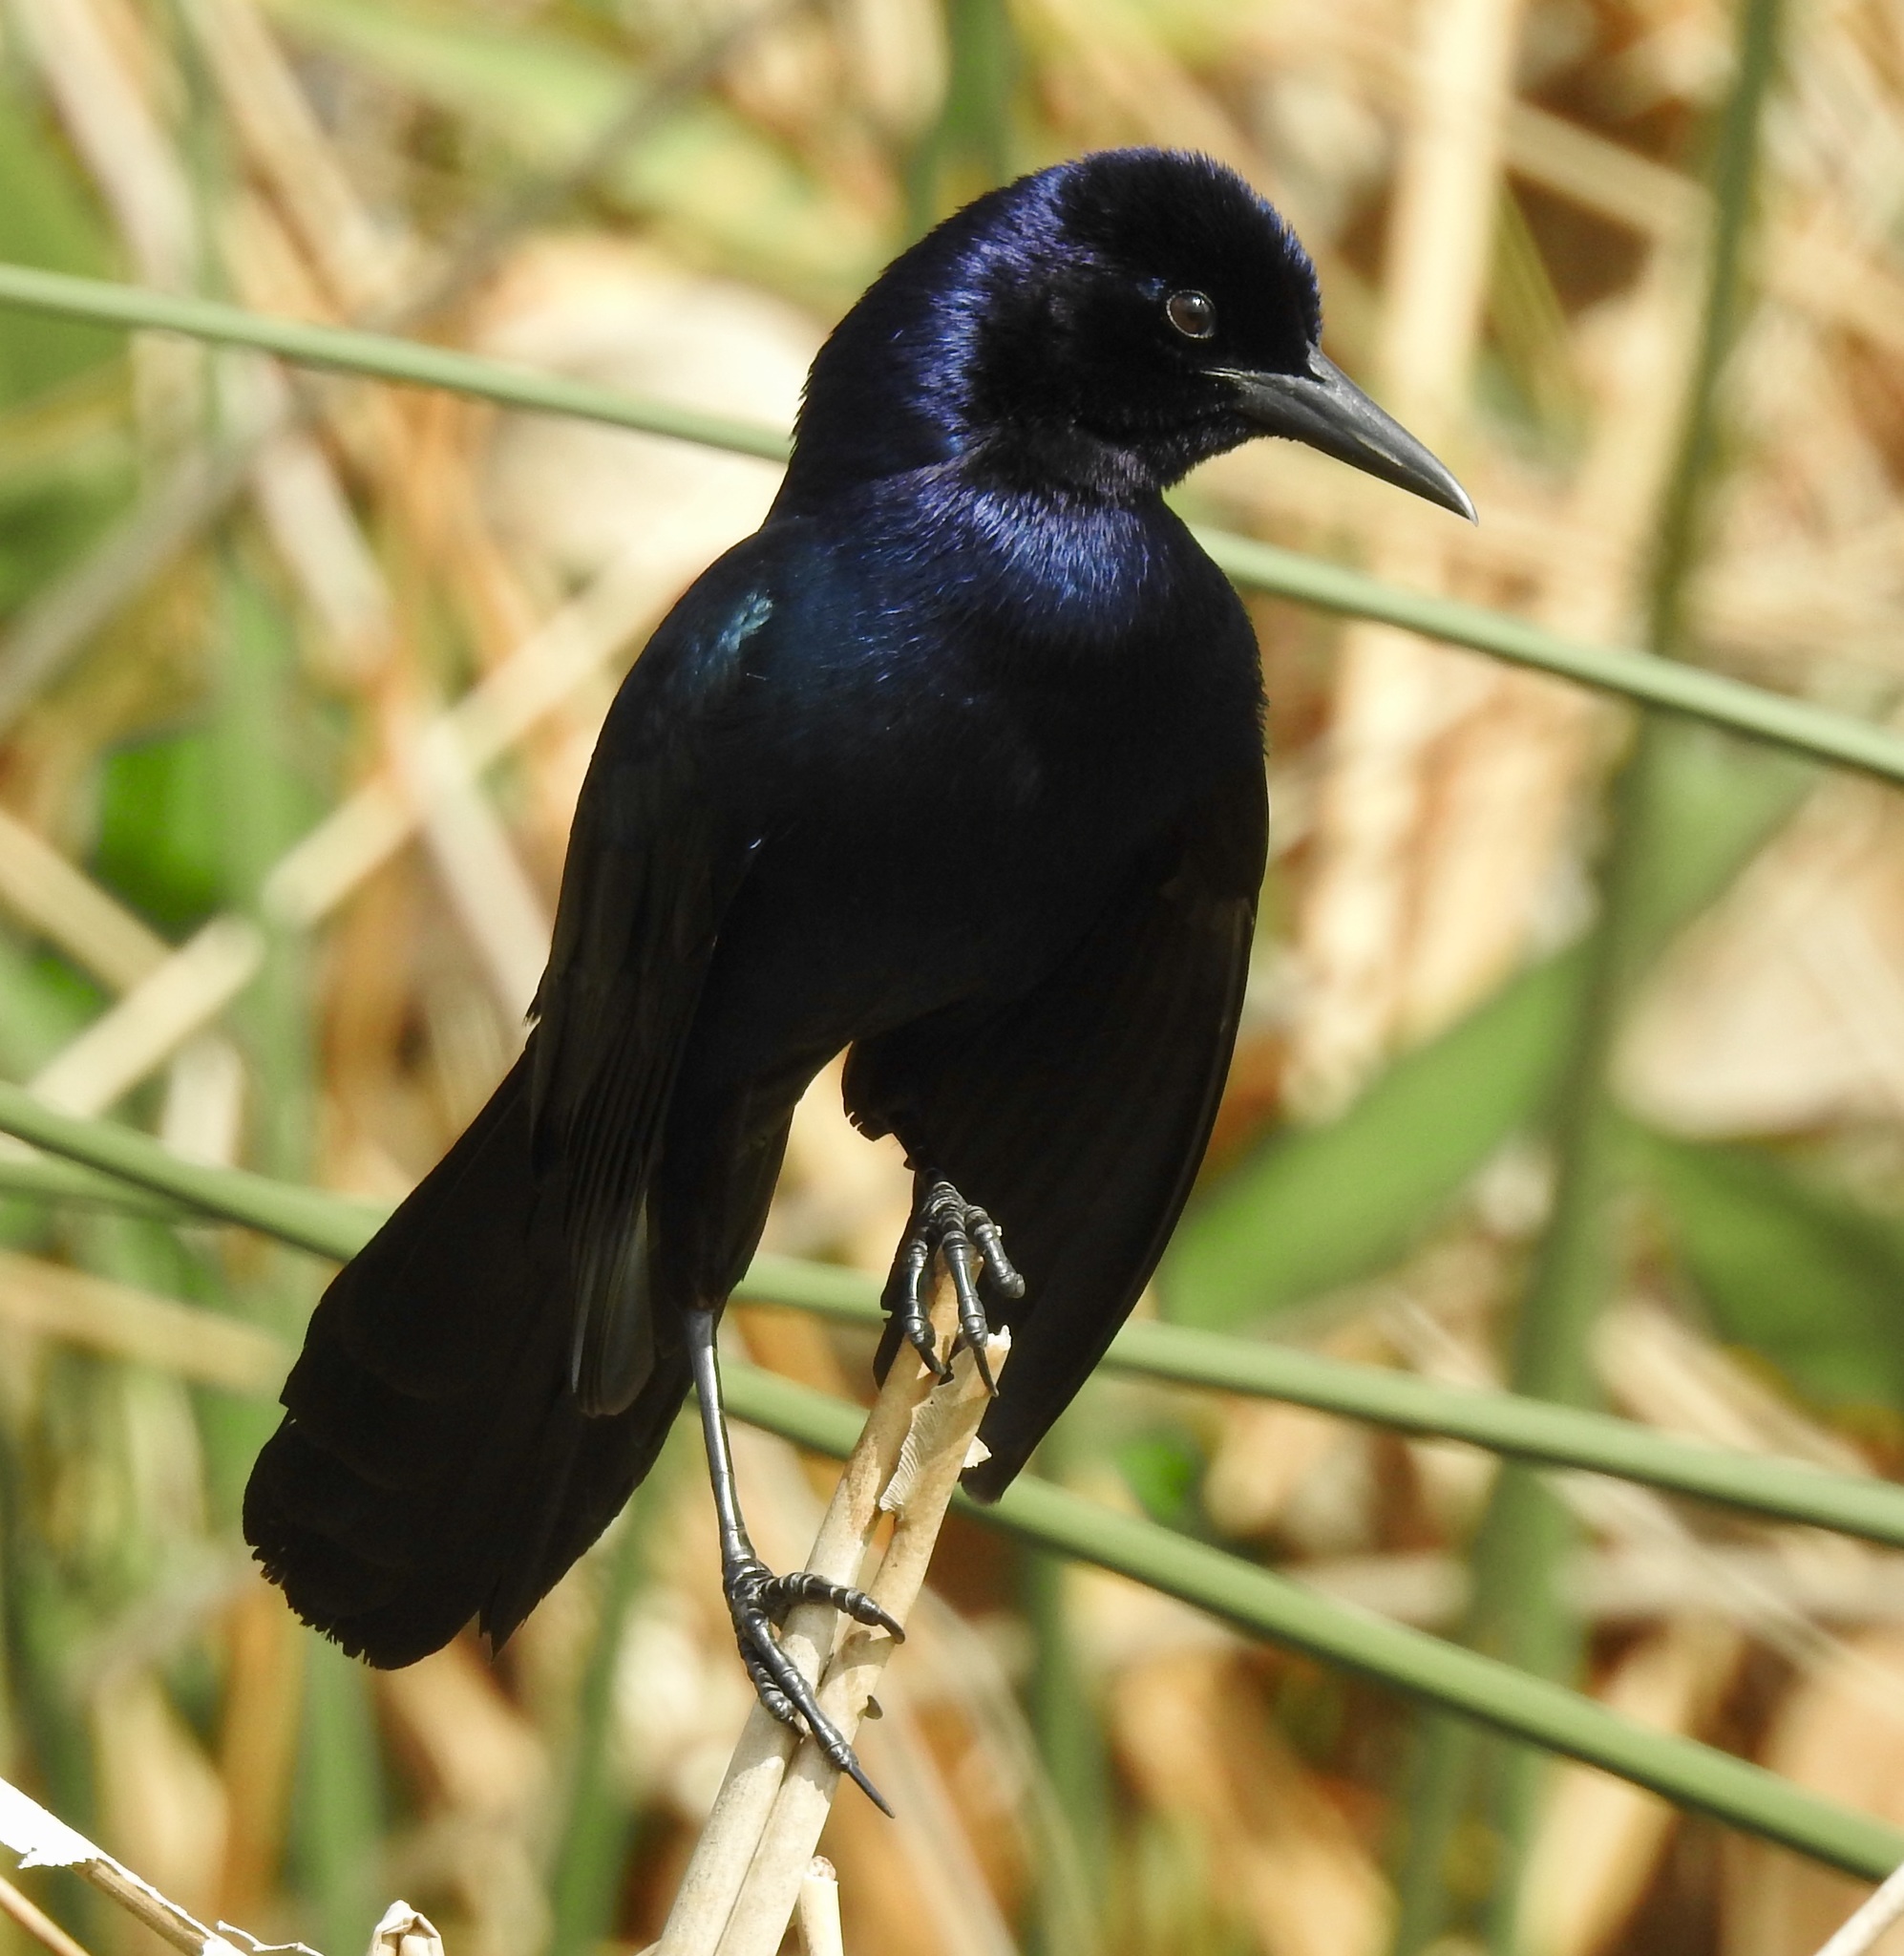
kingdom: Animalia
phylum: Chordata
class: Aves
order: Passeriformes
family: Icteridae
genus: Quiscalus
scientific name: Quiscalus major
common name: Boat-tailed grackle
